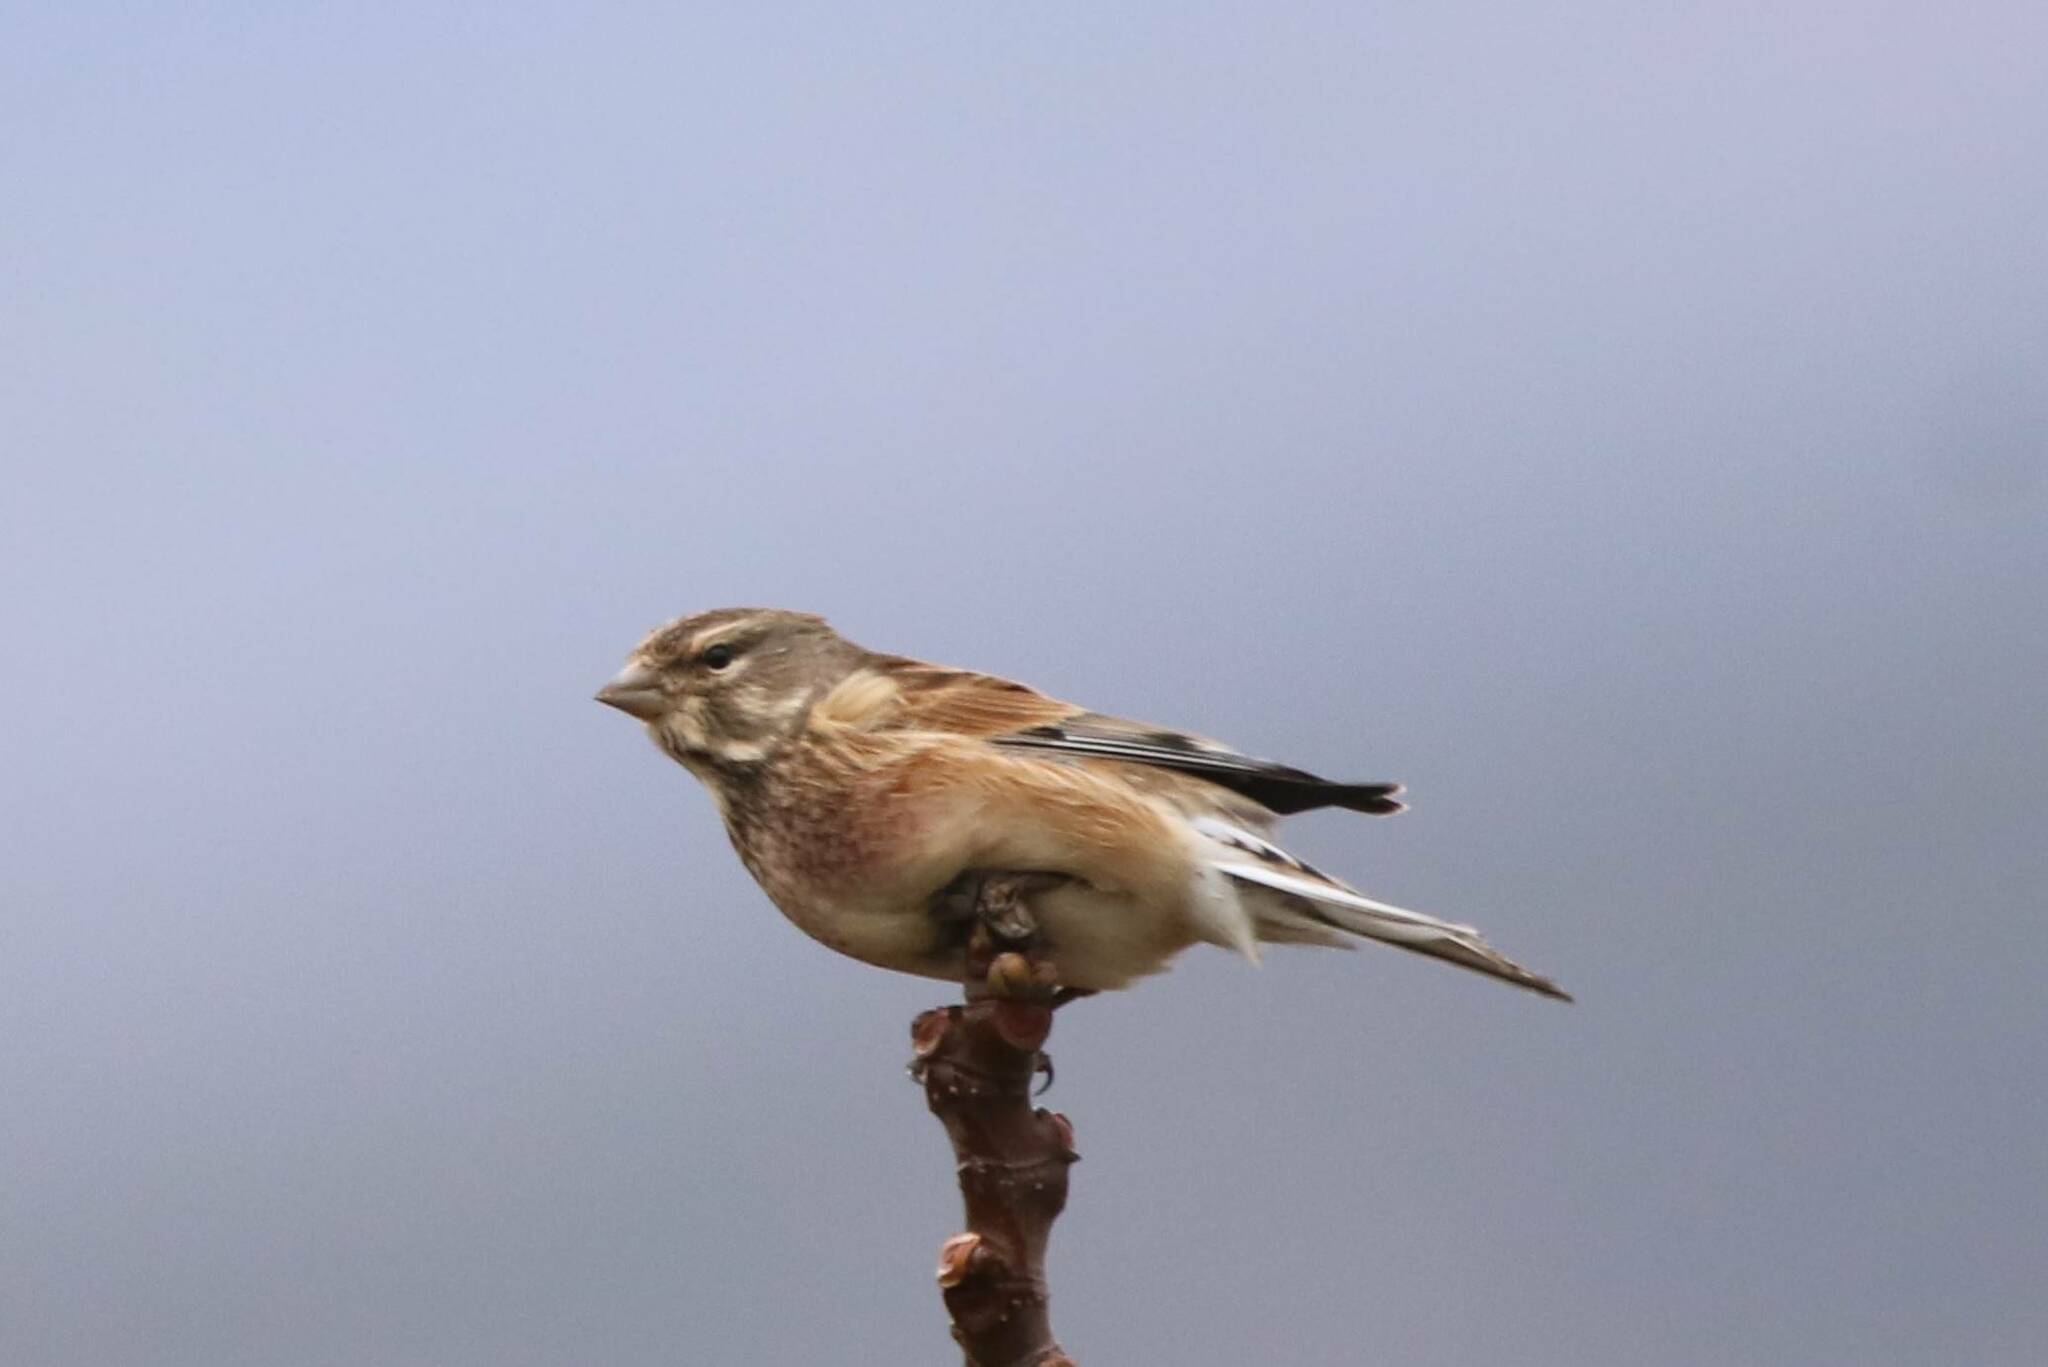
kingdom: Animalia
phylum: Chordata
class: Aves
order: Passeriformes
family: Fringillidae
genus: Linaria
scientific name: Linaria cannabina
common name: Common linnet
